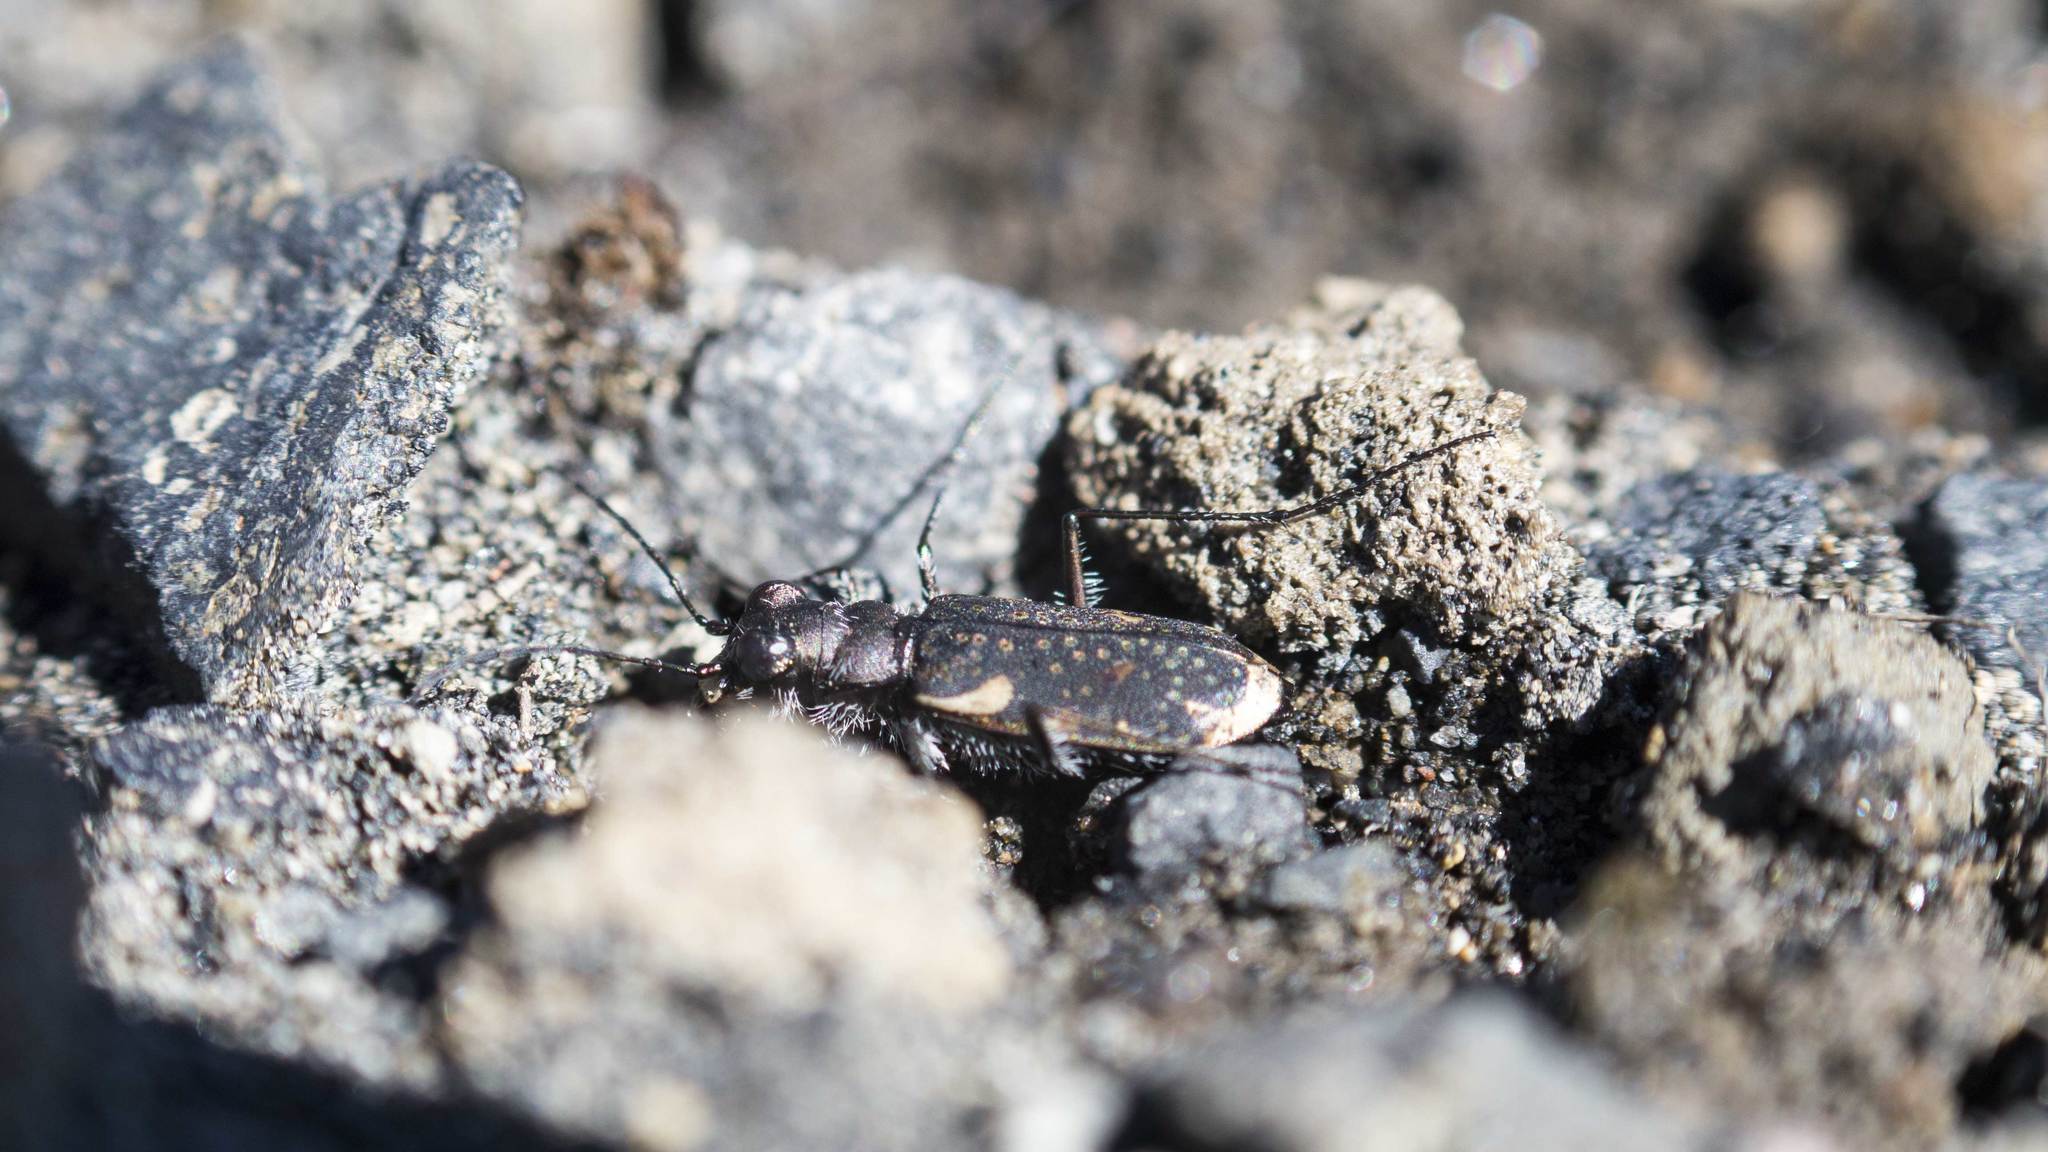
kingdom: Animalia
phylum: Arthropoda
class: Insecta
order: Coleoptera
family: Carabidae
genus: Zecicindela
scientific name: Zecicindela helmsi
